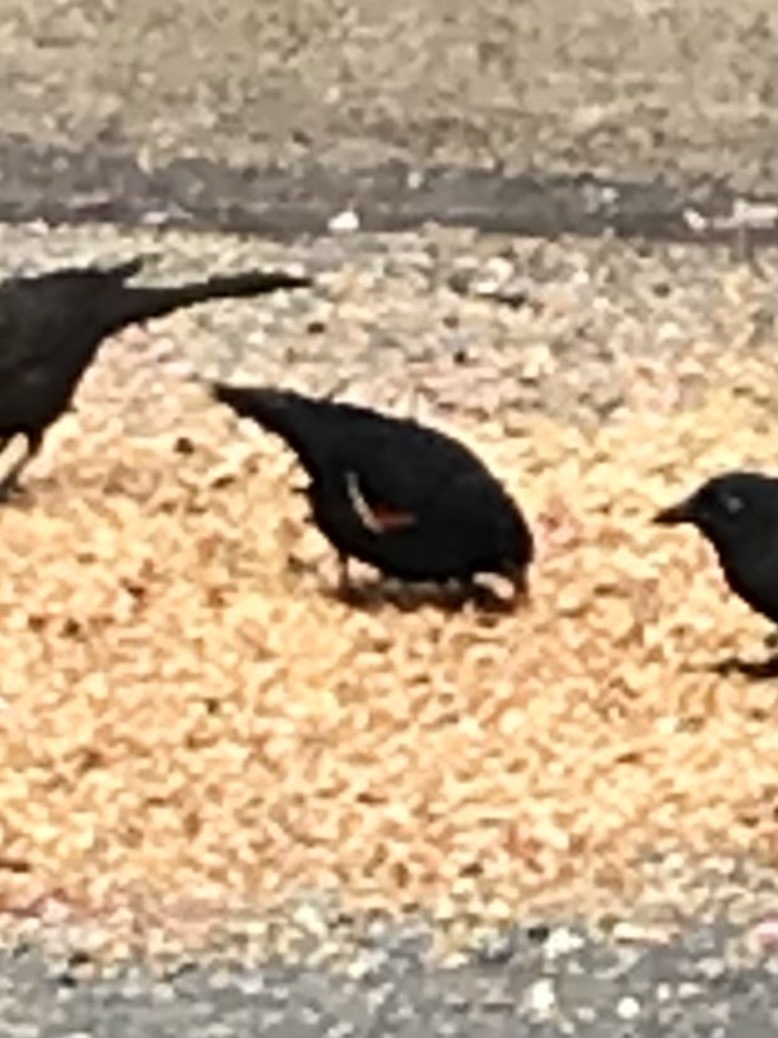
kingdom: Animalia
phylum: Chordata
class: Aves
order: Passeriformes
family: Icteridae
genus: Agelaius
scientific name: Agelaius phoeniceus
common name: Red-winged blackbird
